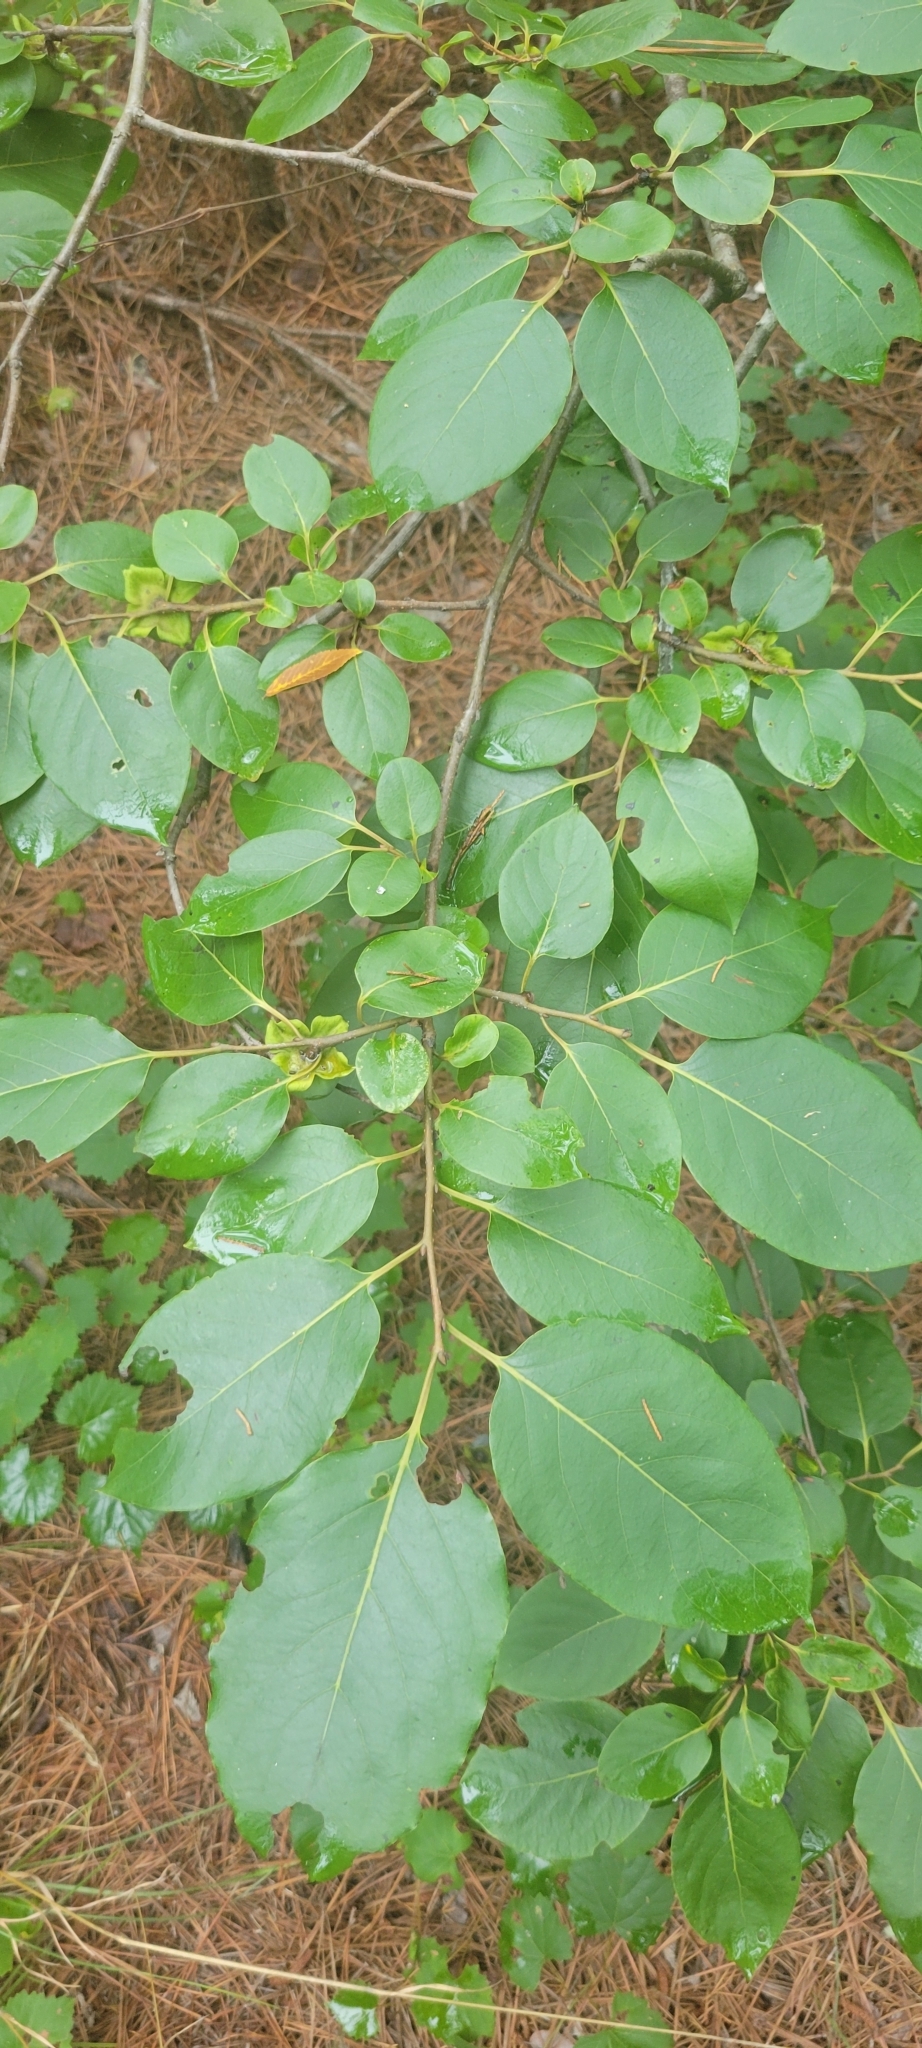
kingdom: Plantae
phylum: Tracheophyta
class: Magnoliopsida
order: Ericales
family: Ebenaceae
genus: Diospyros
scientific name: Diospyros virginiana
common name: Persimmon
